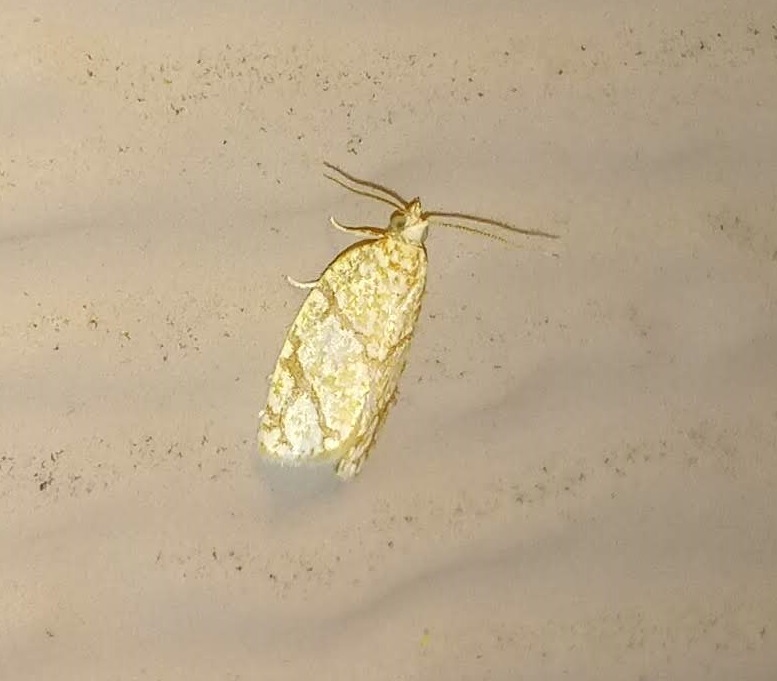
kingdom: Animalia
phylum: Arthropoda
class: Insecta
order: Lepidoptera
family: Tortricidae
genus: Argyrotaenia
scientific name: Argyrotaenia quercifoliana
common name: Yellow-winged oak leafroller moth
